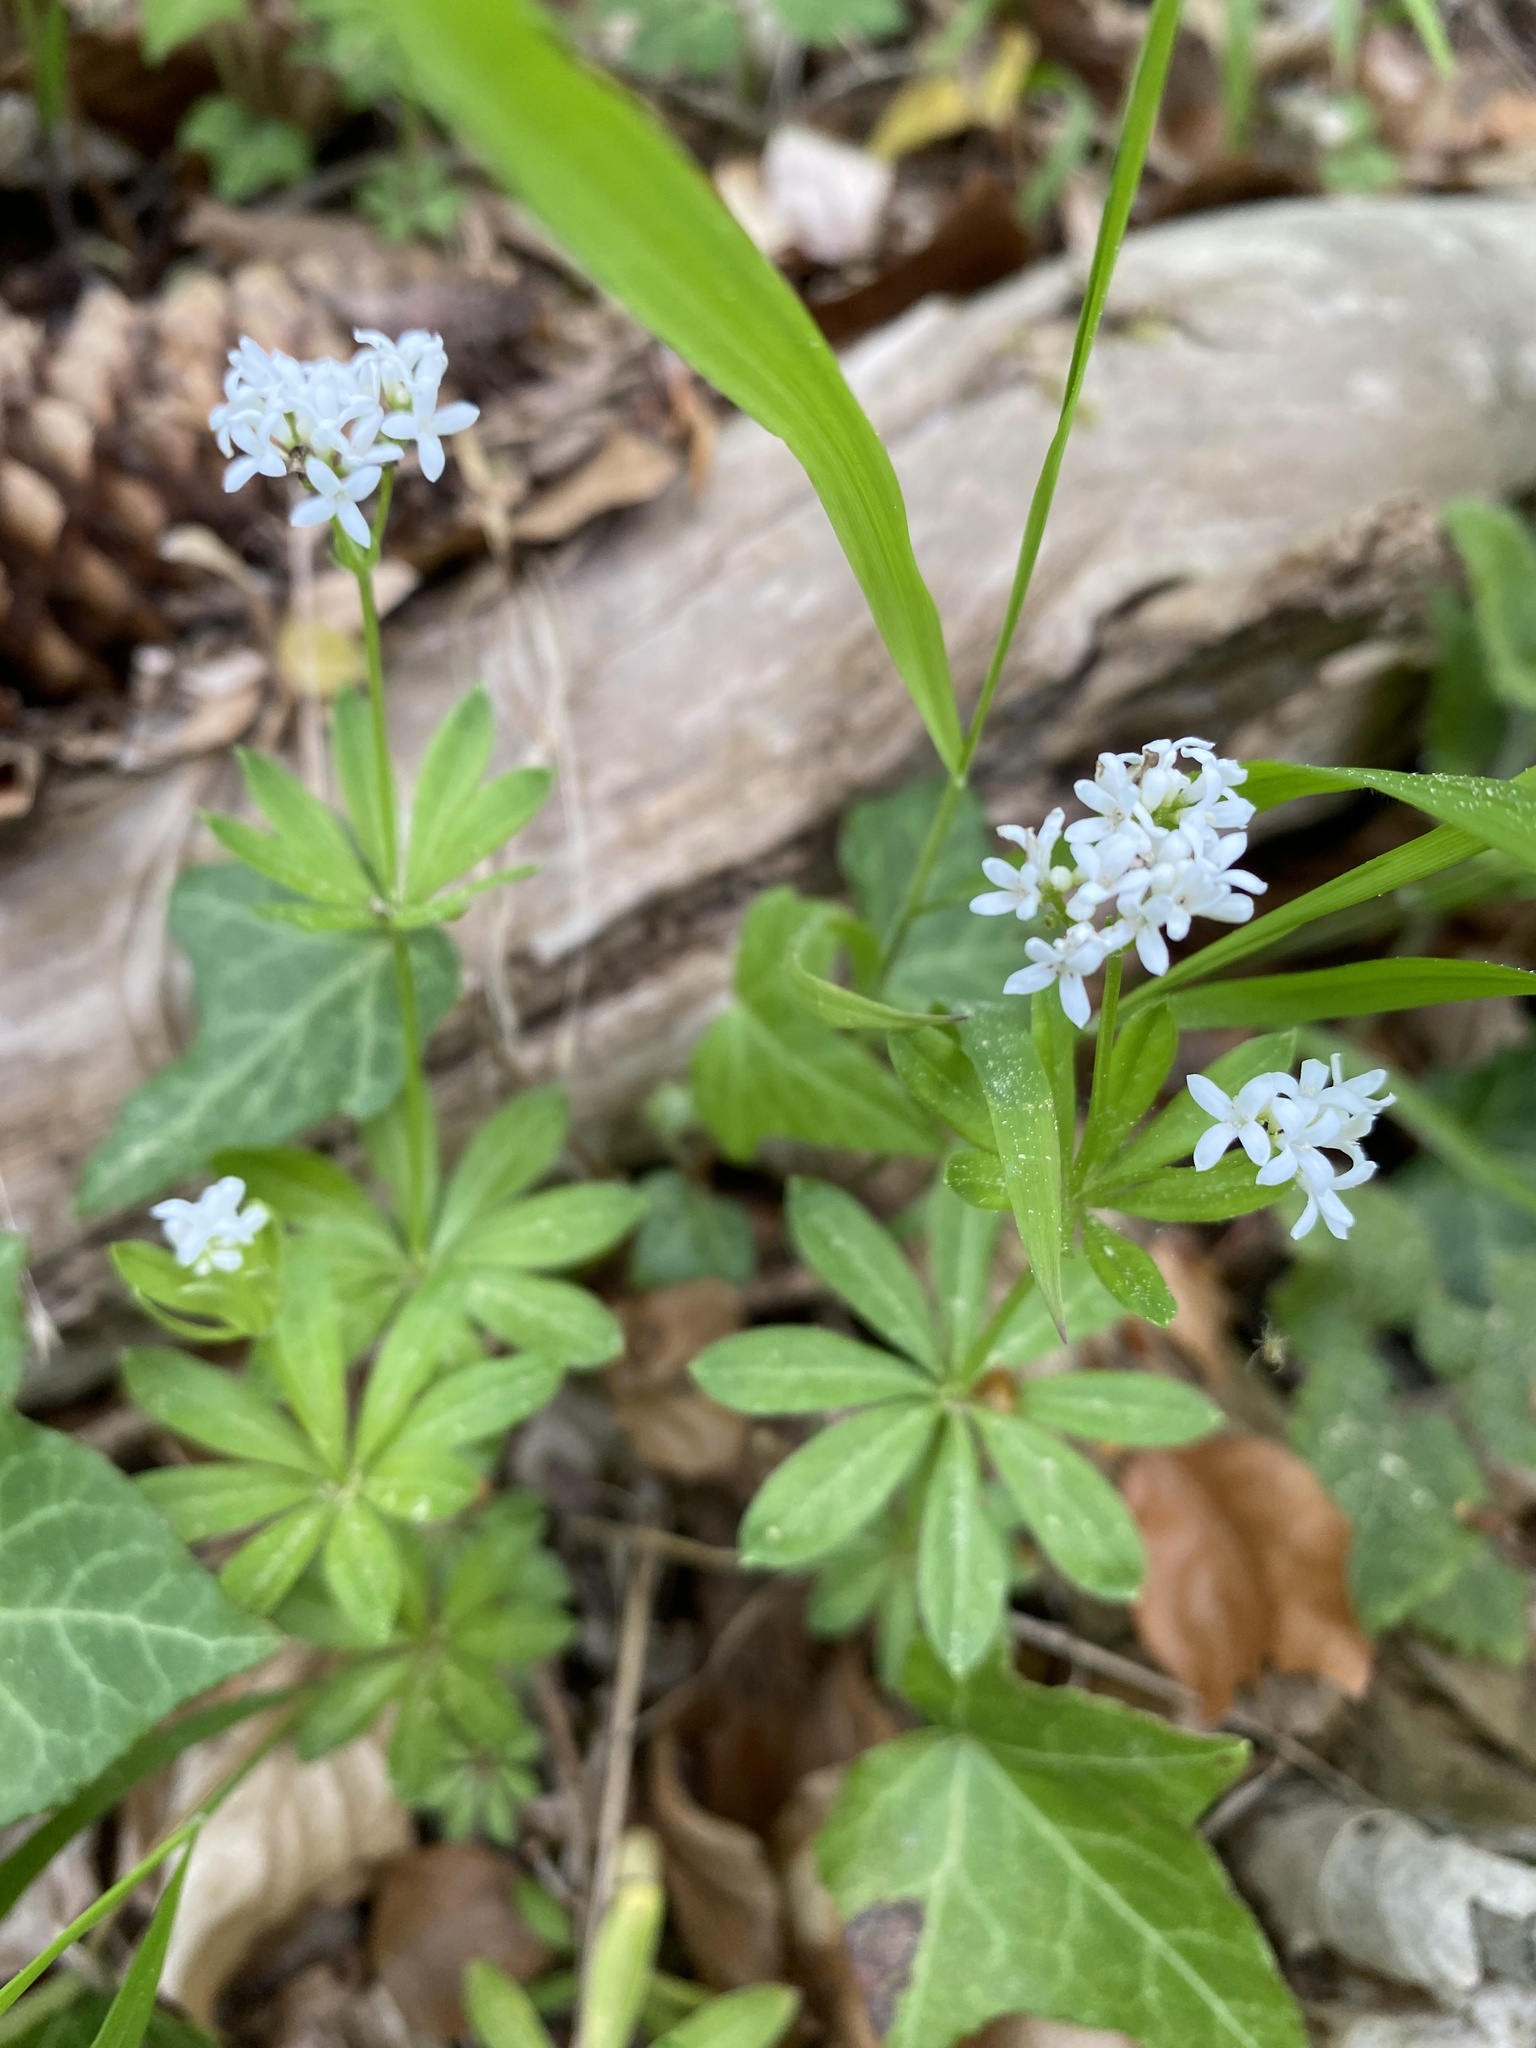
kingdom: Plantae
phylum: Tracheophyta
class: Magnoliopsida
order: Gentianales
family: Rubiaceae
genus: Galium
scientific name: Galium odoratum
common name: Sweet woodruff
